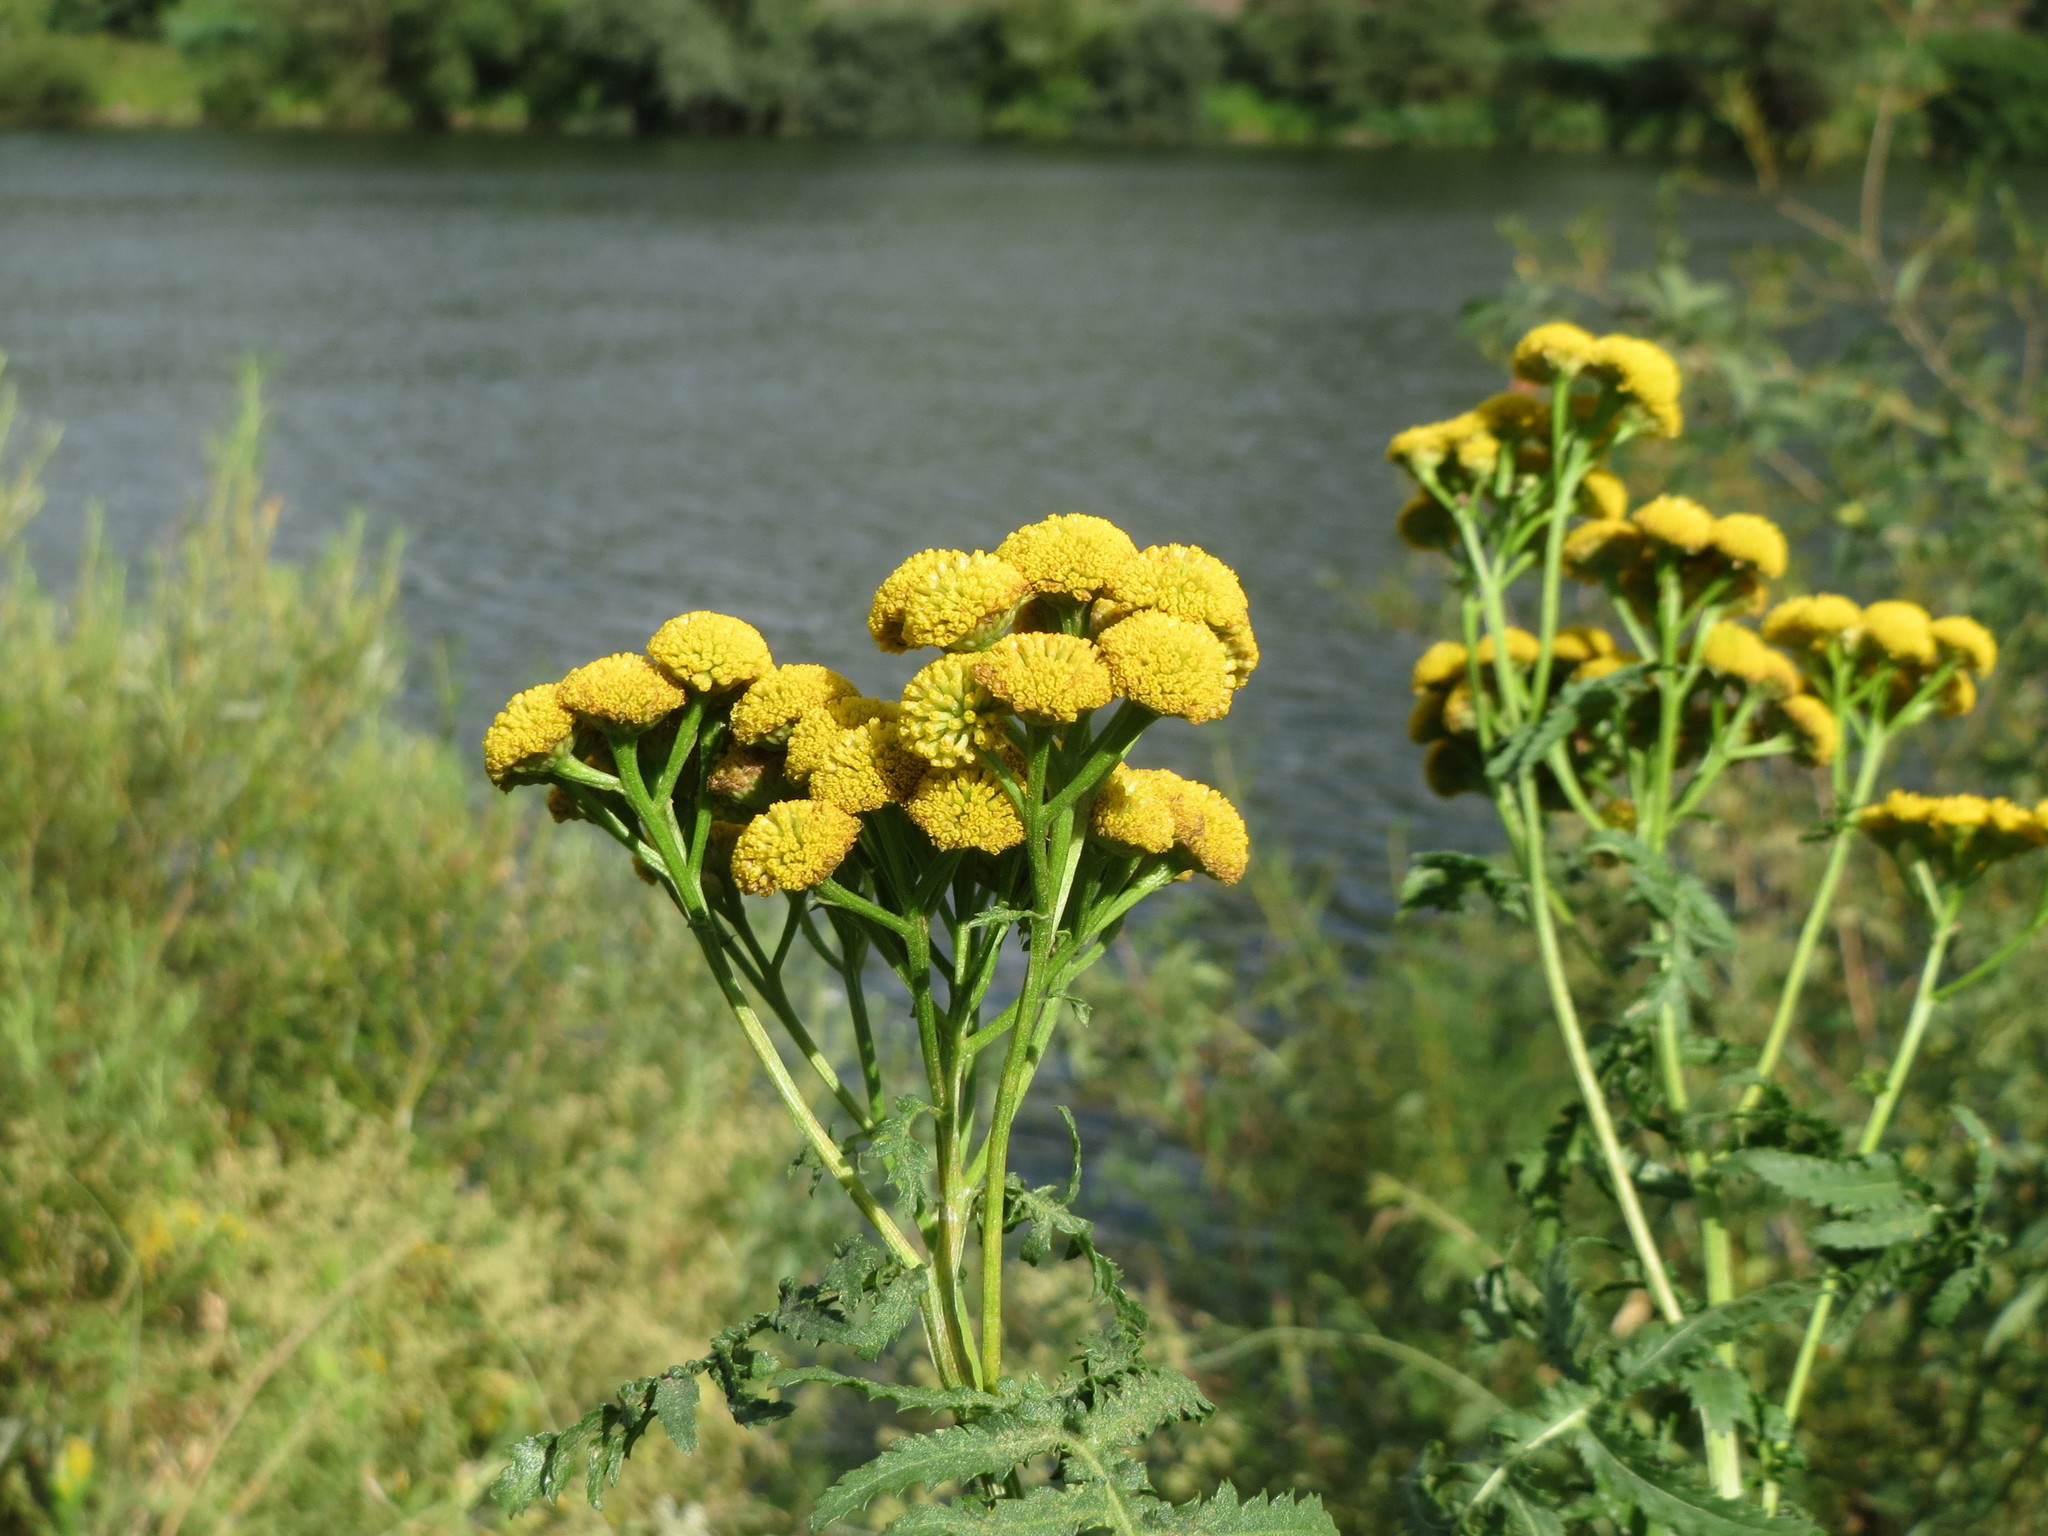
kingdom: Plantae
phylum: Tracheophyta
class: Magnoliopsida
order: Asterales
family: Asteraceae
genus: Tanacetum
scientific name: Tanacetum vulgare
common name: Common tansy
